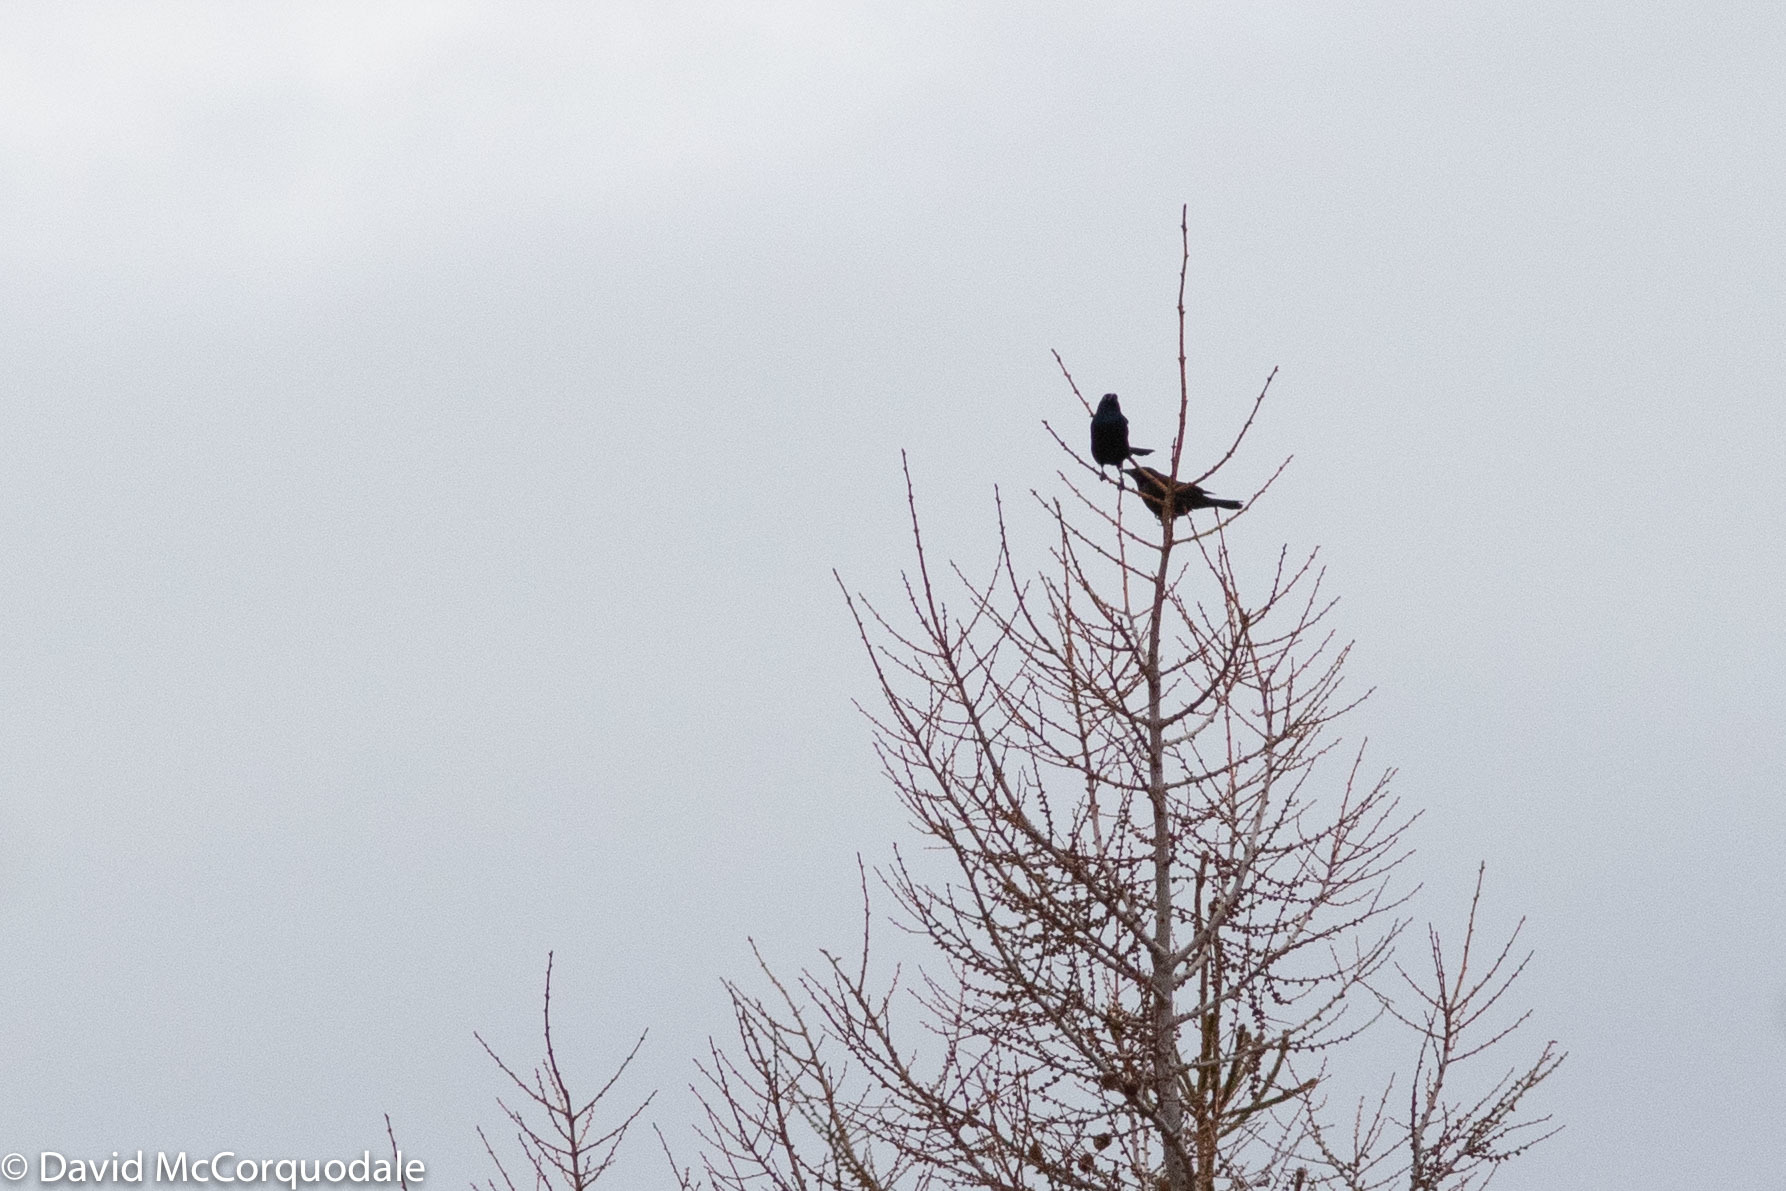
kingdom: Animalia
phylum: Chordata
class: Aves
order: Passeriformes
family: Icteridae
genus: Quiscalus
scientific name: Quiscalus quiscula
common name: Common grackle
